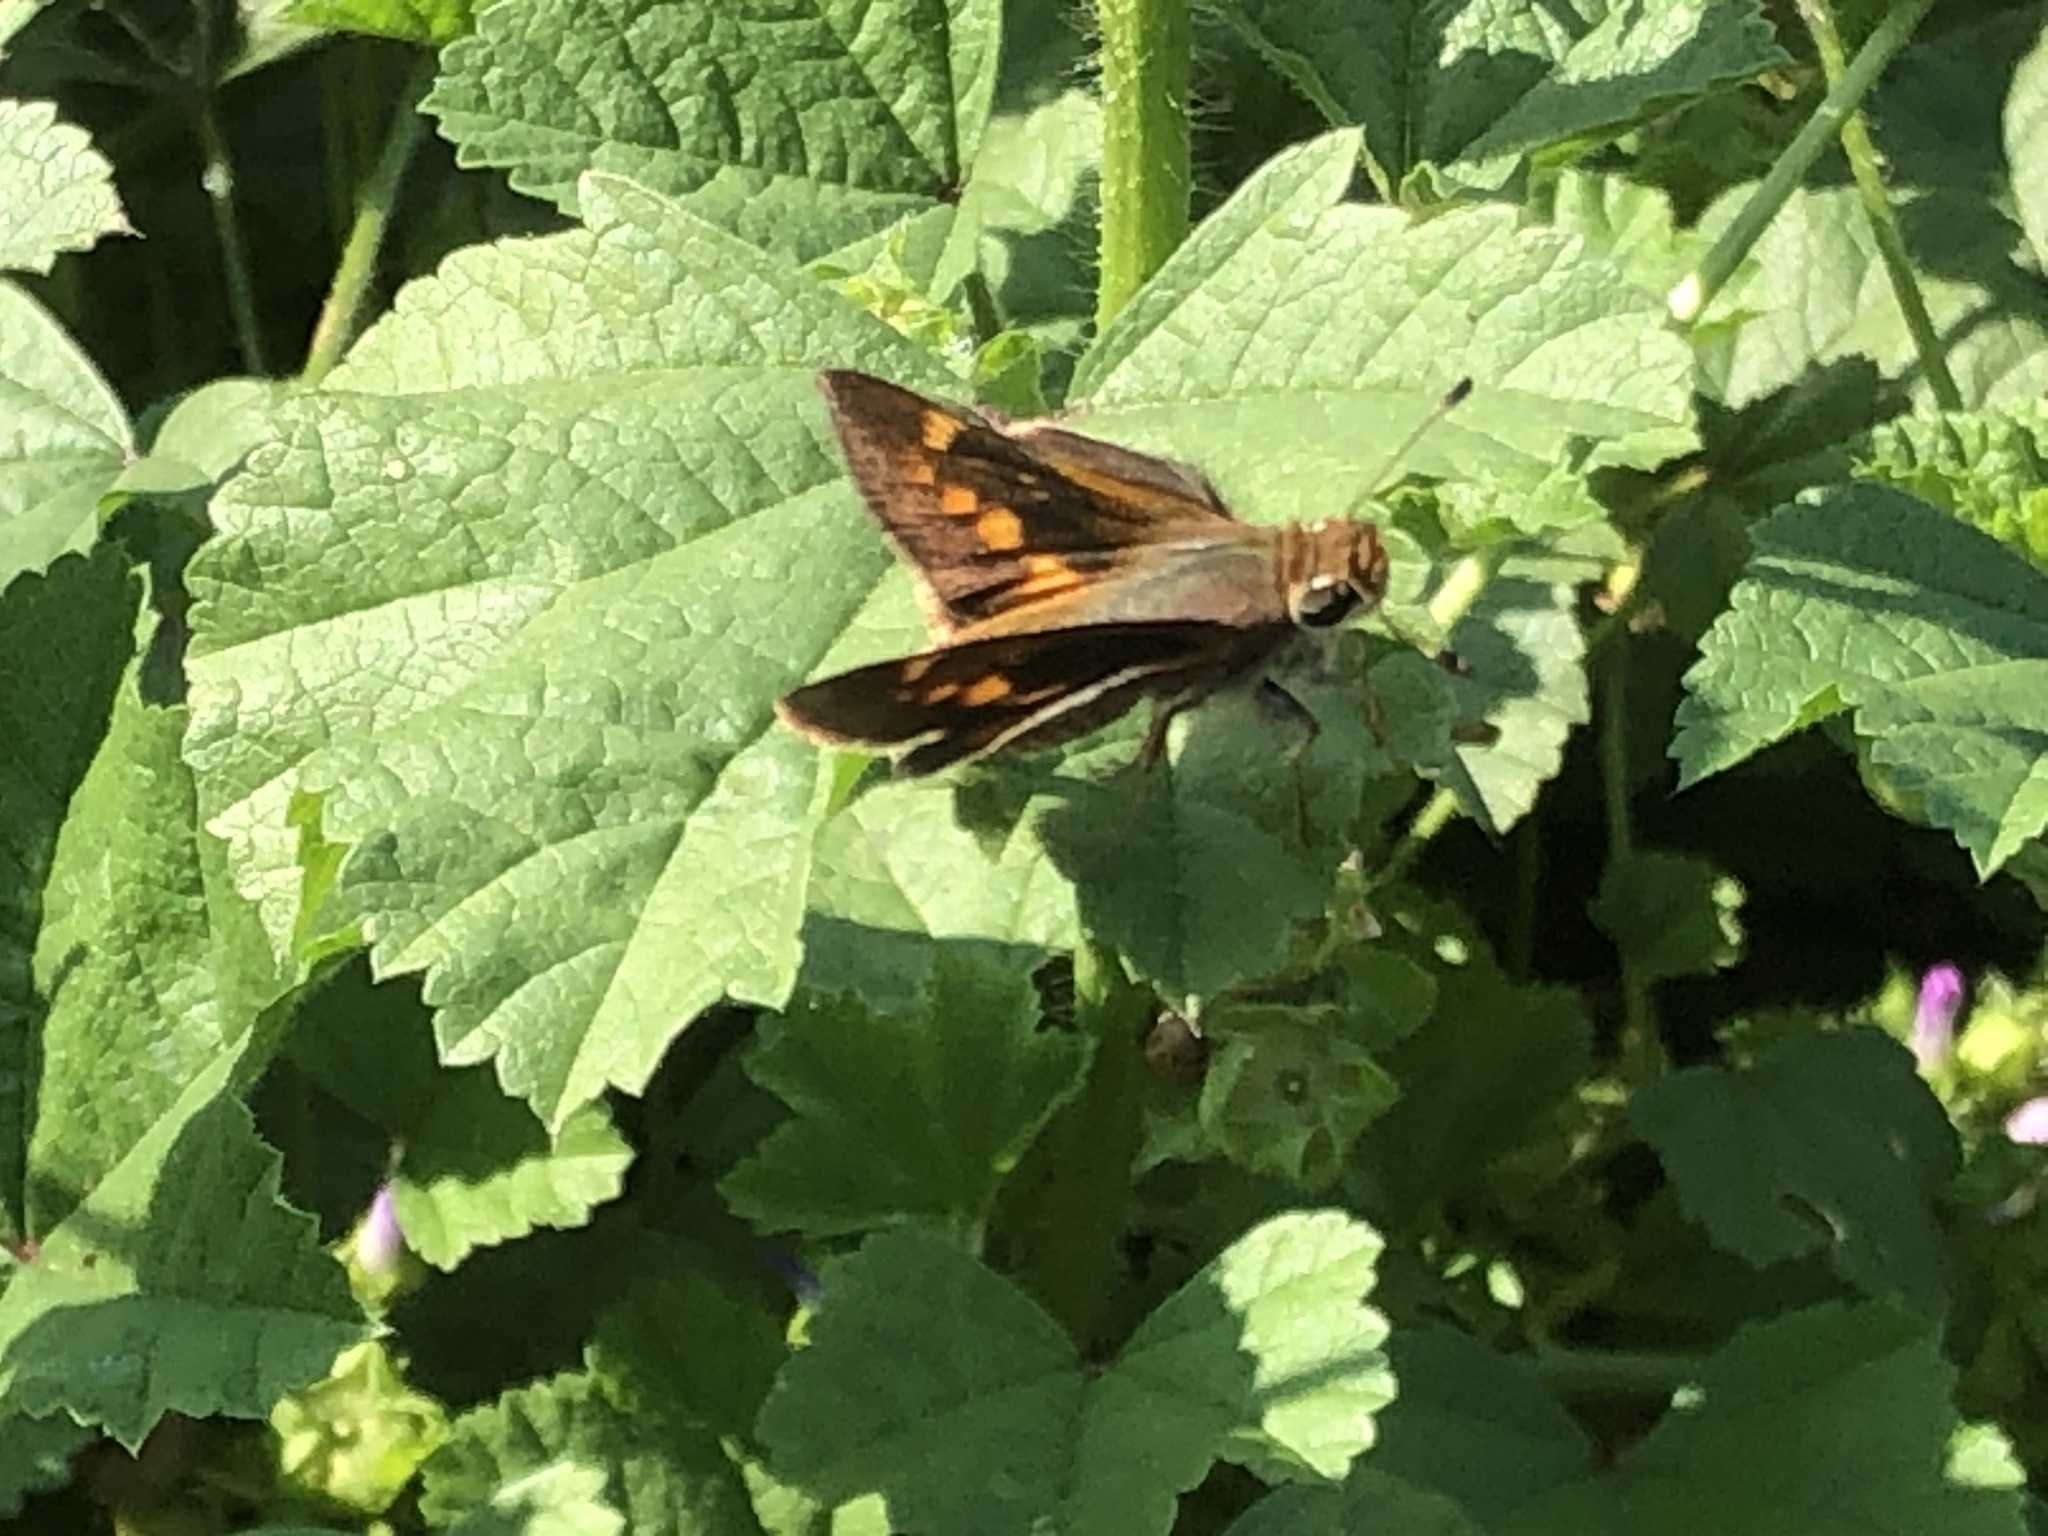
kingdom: Animalia
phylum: Arthropoda
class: Insecta
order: Lepidoptera
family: Hesperiidae
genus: Lon
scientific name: Lon melane
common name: Umber skipper
